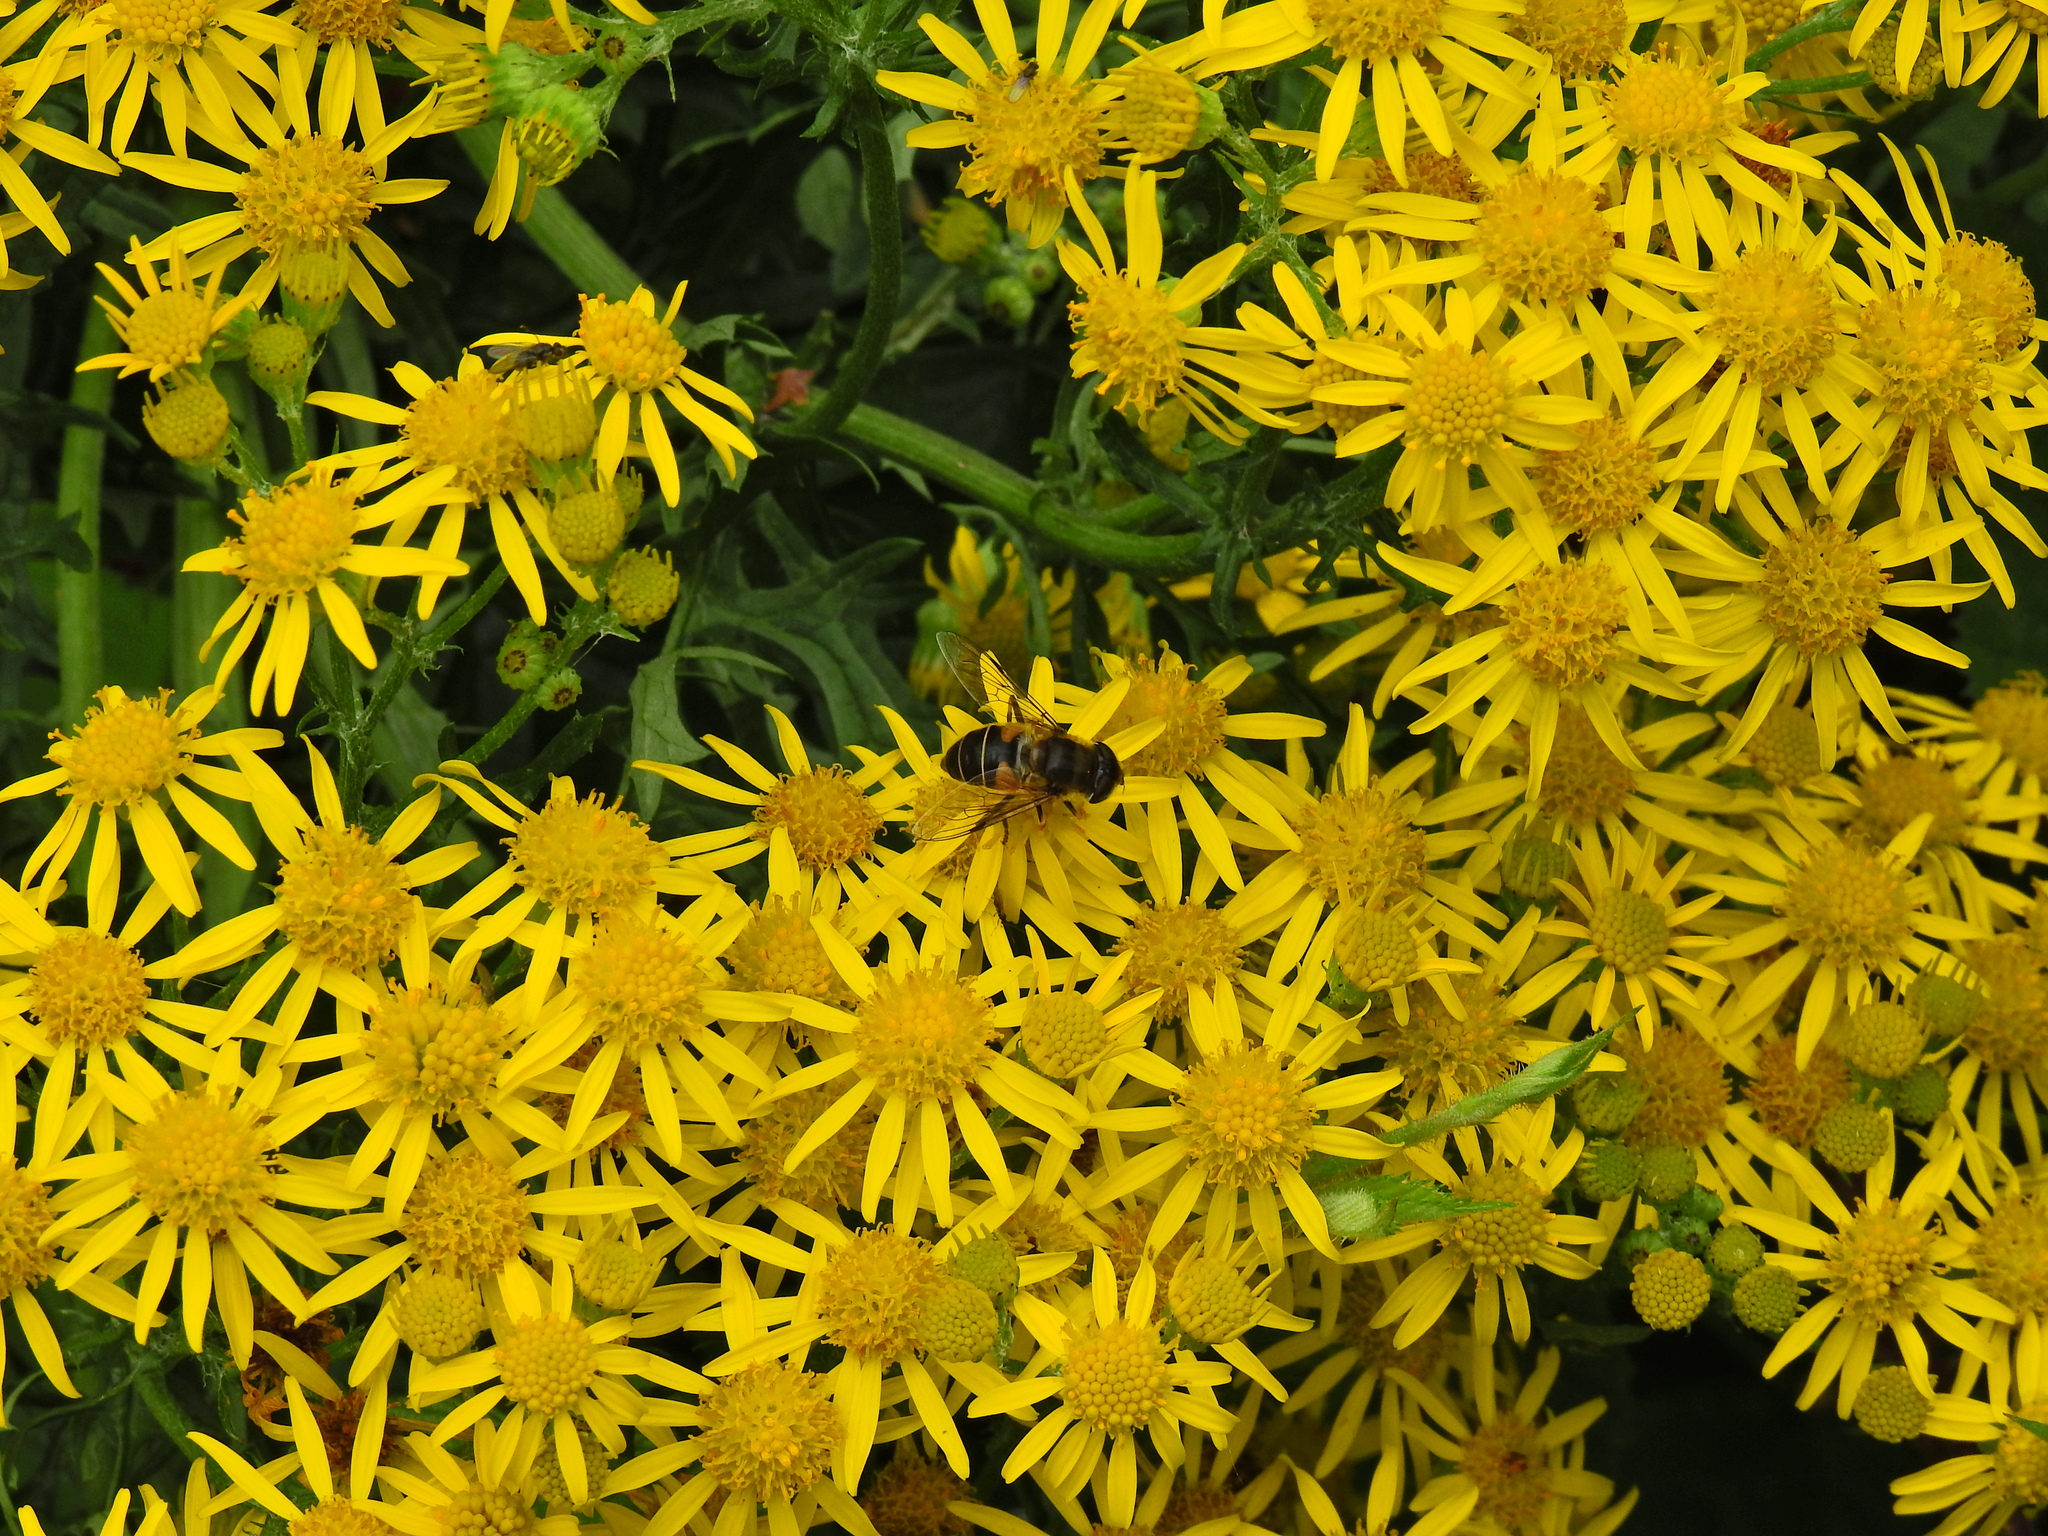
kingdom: Animalia
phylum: Arthropoda
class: Insecta
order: Diptera
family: Syrphidae
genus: Eristalis
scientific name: Eristalis pertinax
